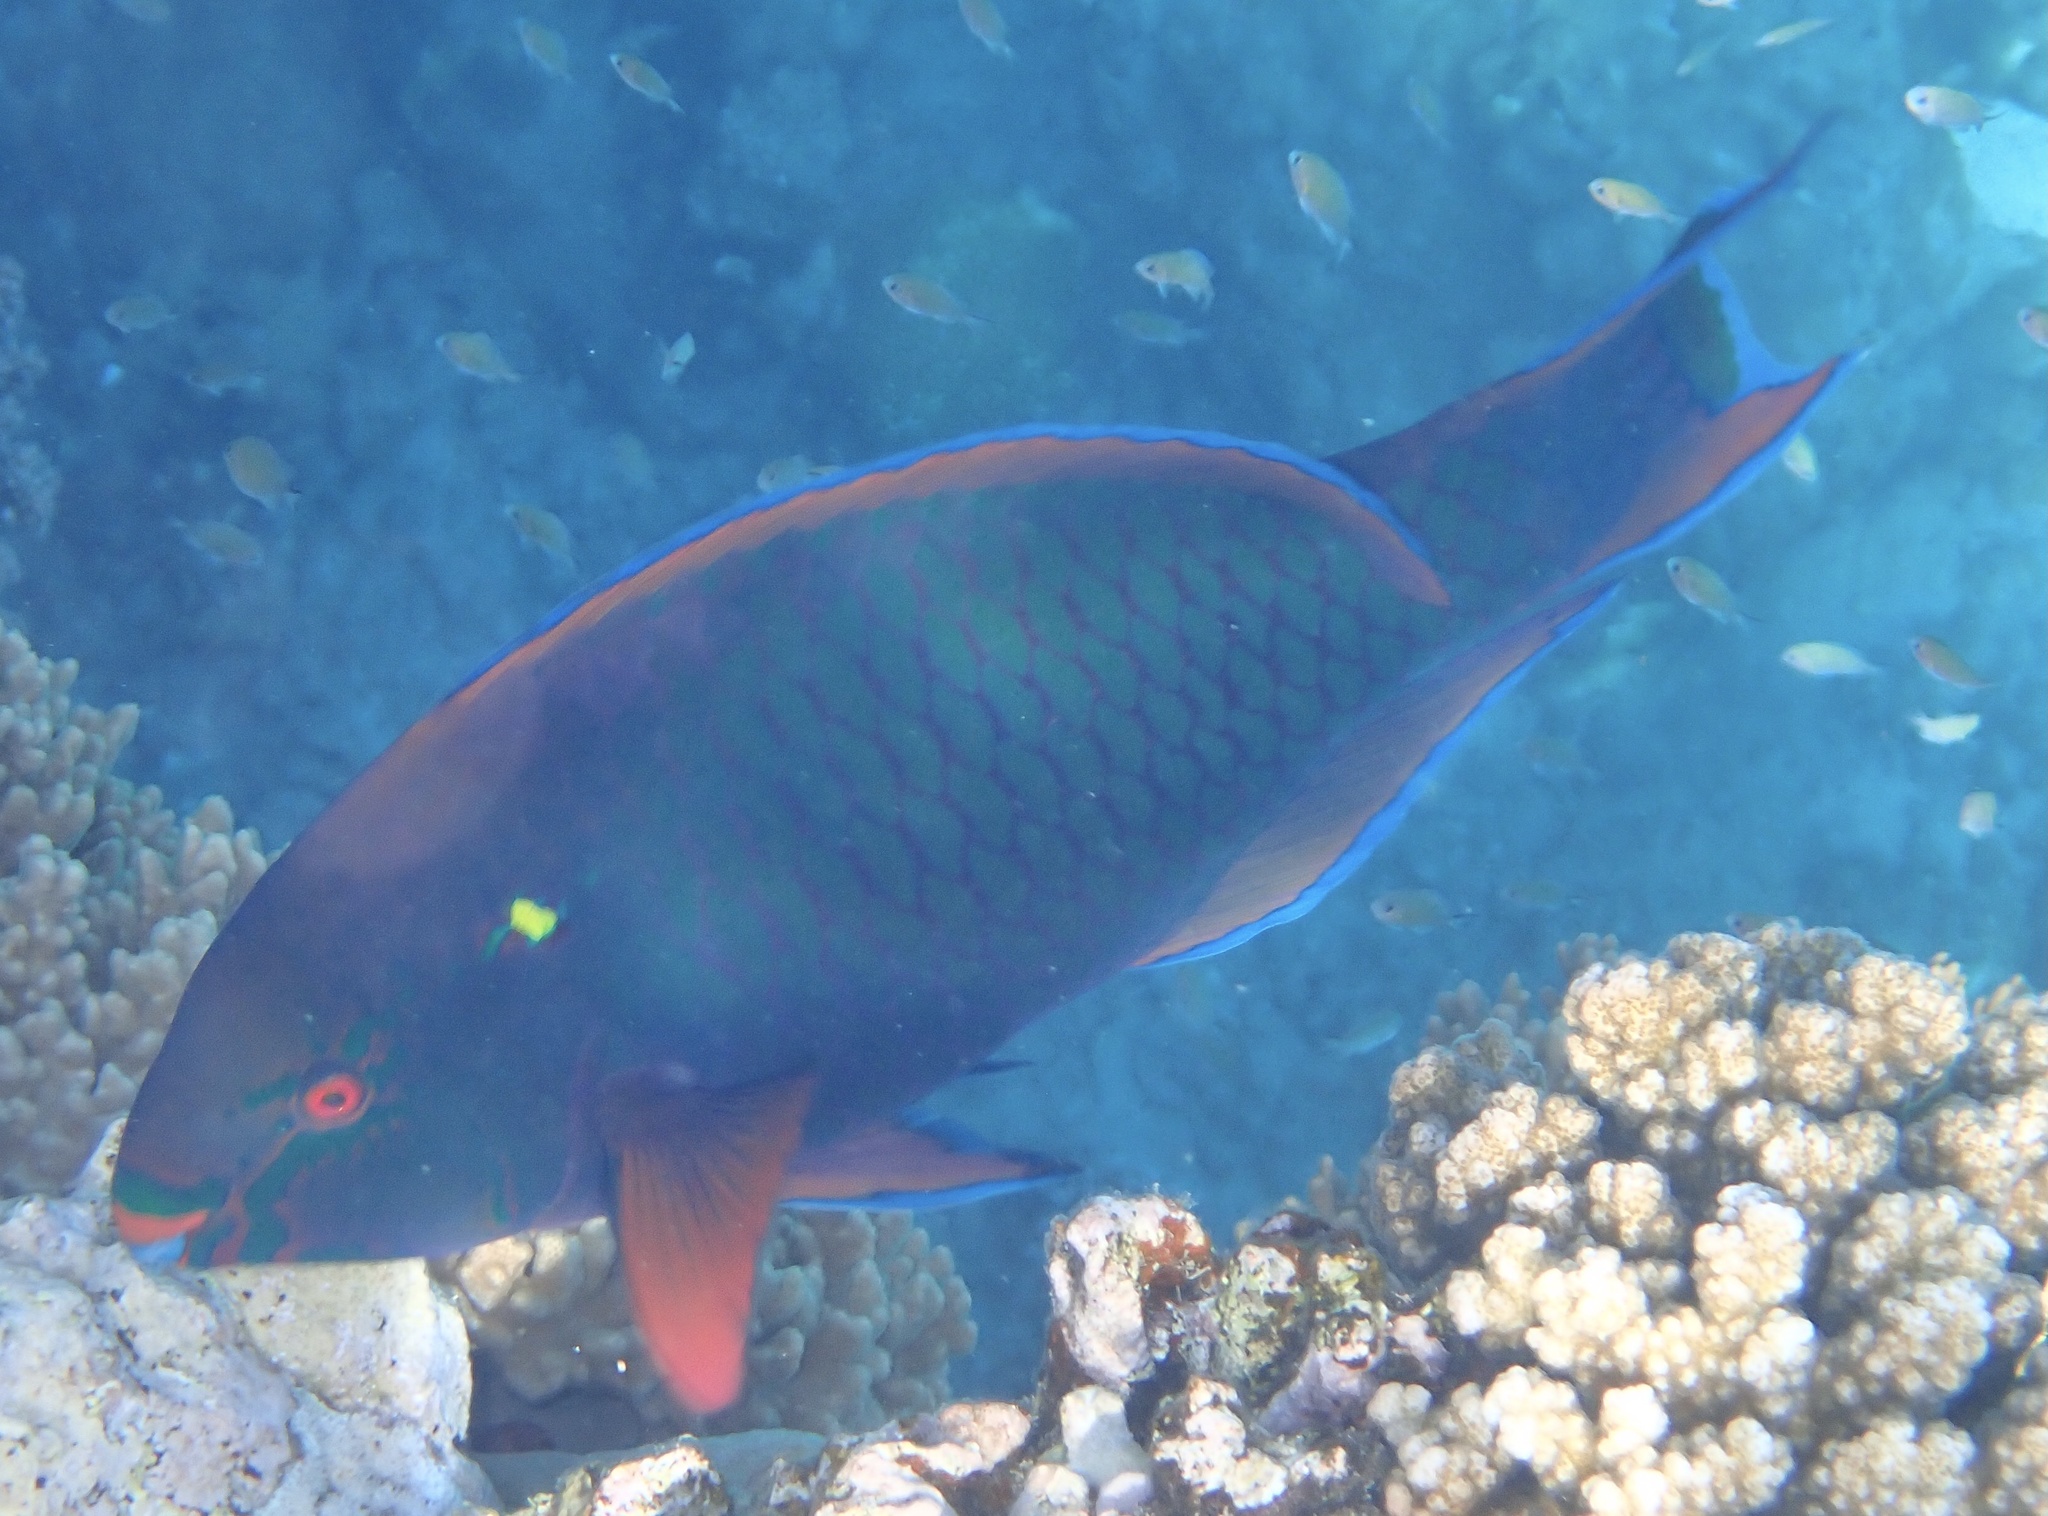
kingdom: Animalia
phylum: Chordata
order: Perciformes
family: Scaridae
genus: Scarus
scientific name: Scarus niger
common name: Dusky parrotfish
